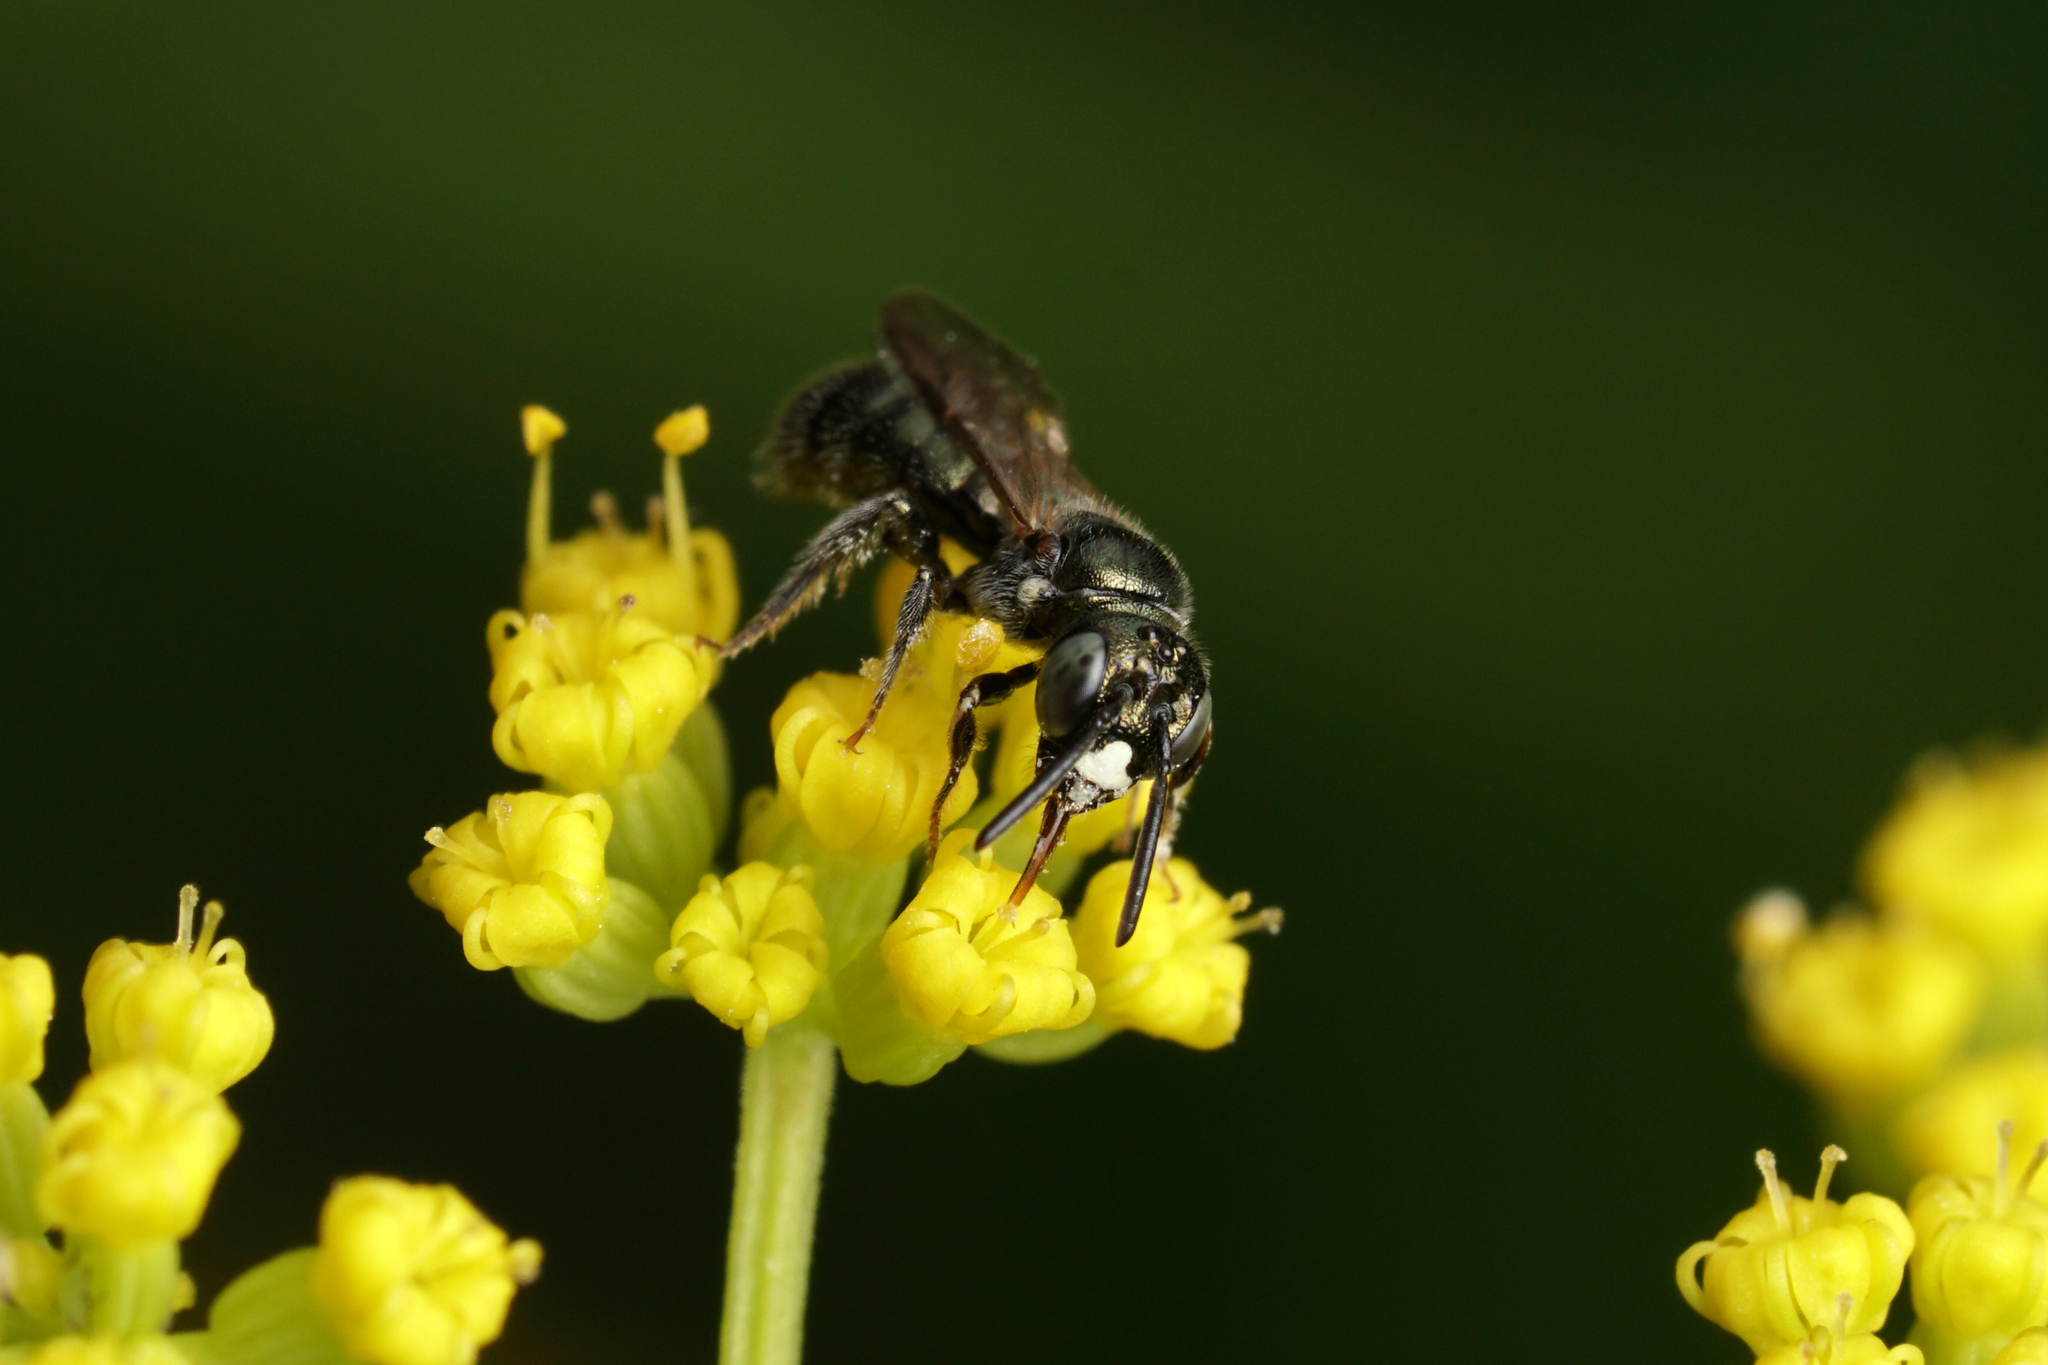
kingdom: Animalia
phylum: Arthropoda
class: Insecta
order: Hymenoptera
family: Apidae
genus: Ceratina
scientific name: Ceratina strenua
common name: Nimble carpenter bee
